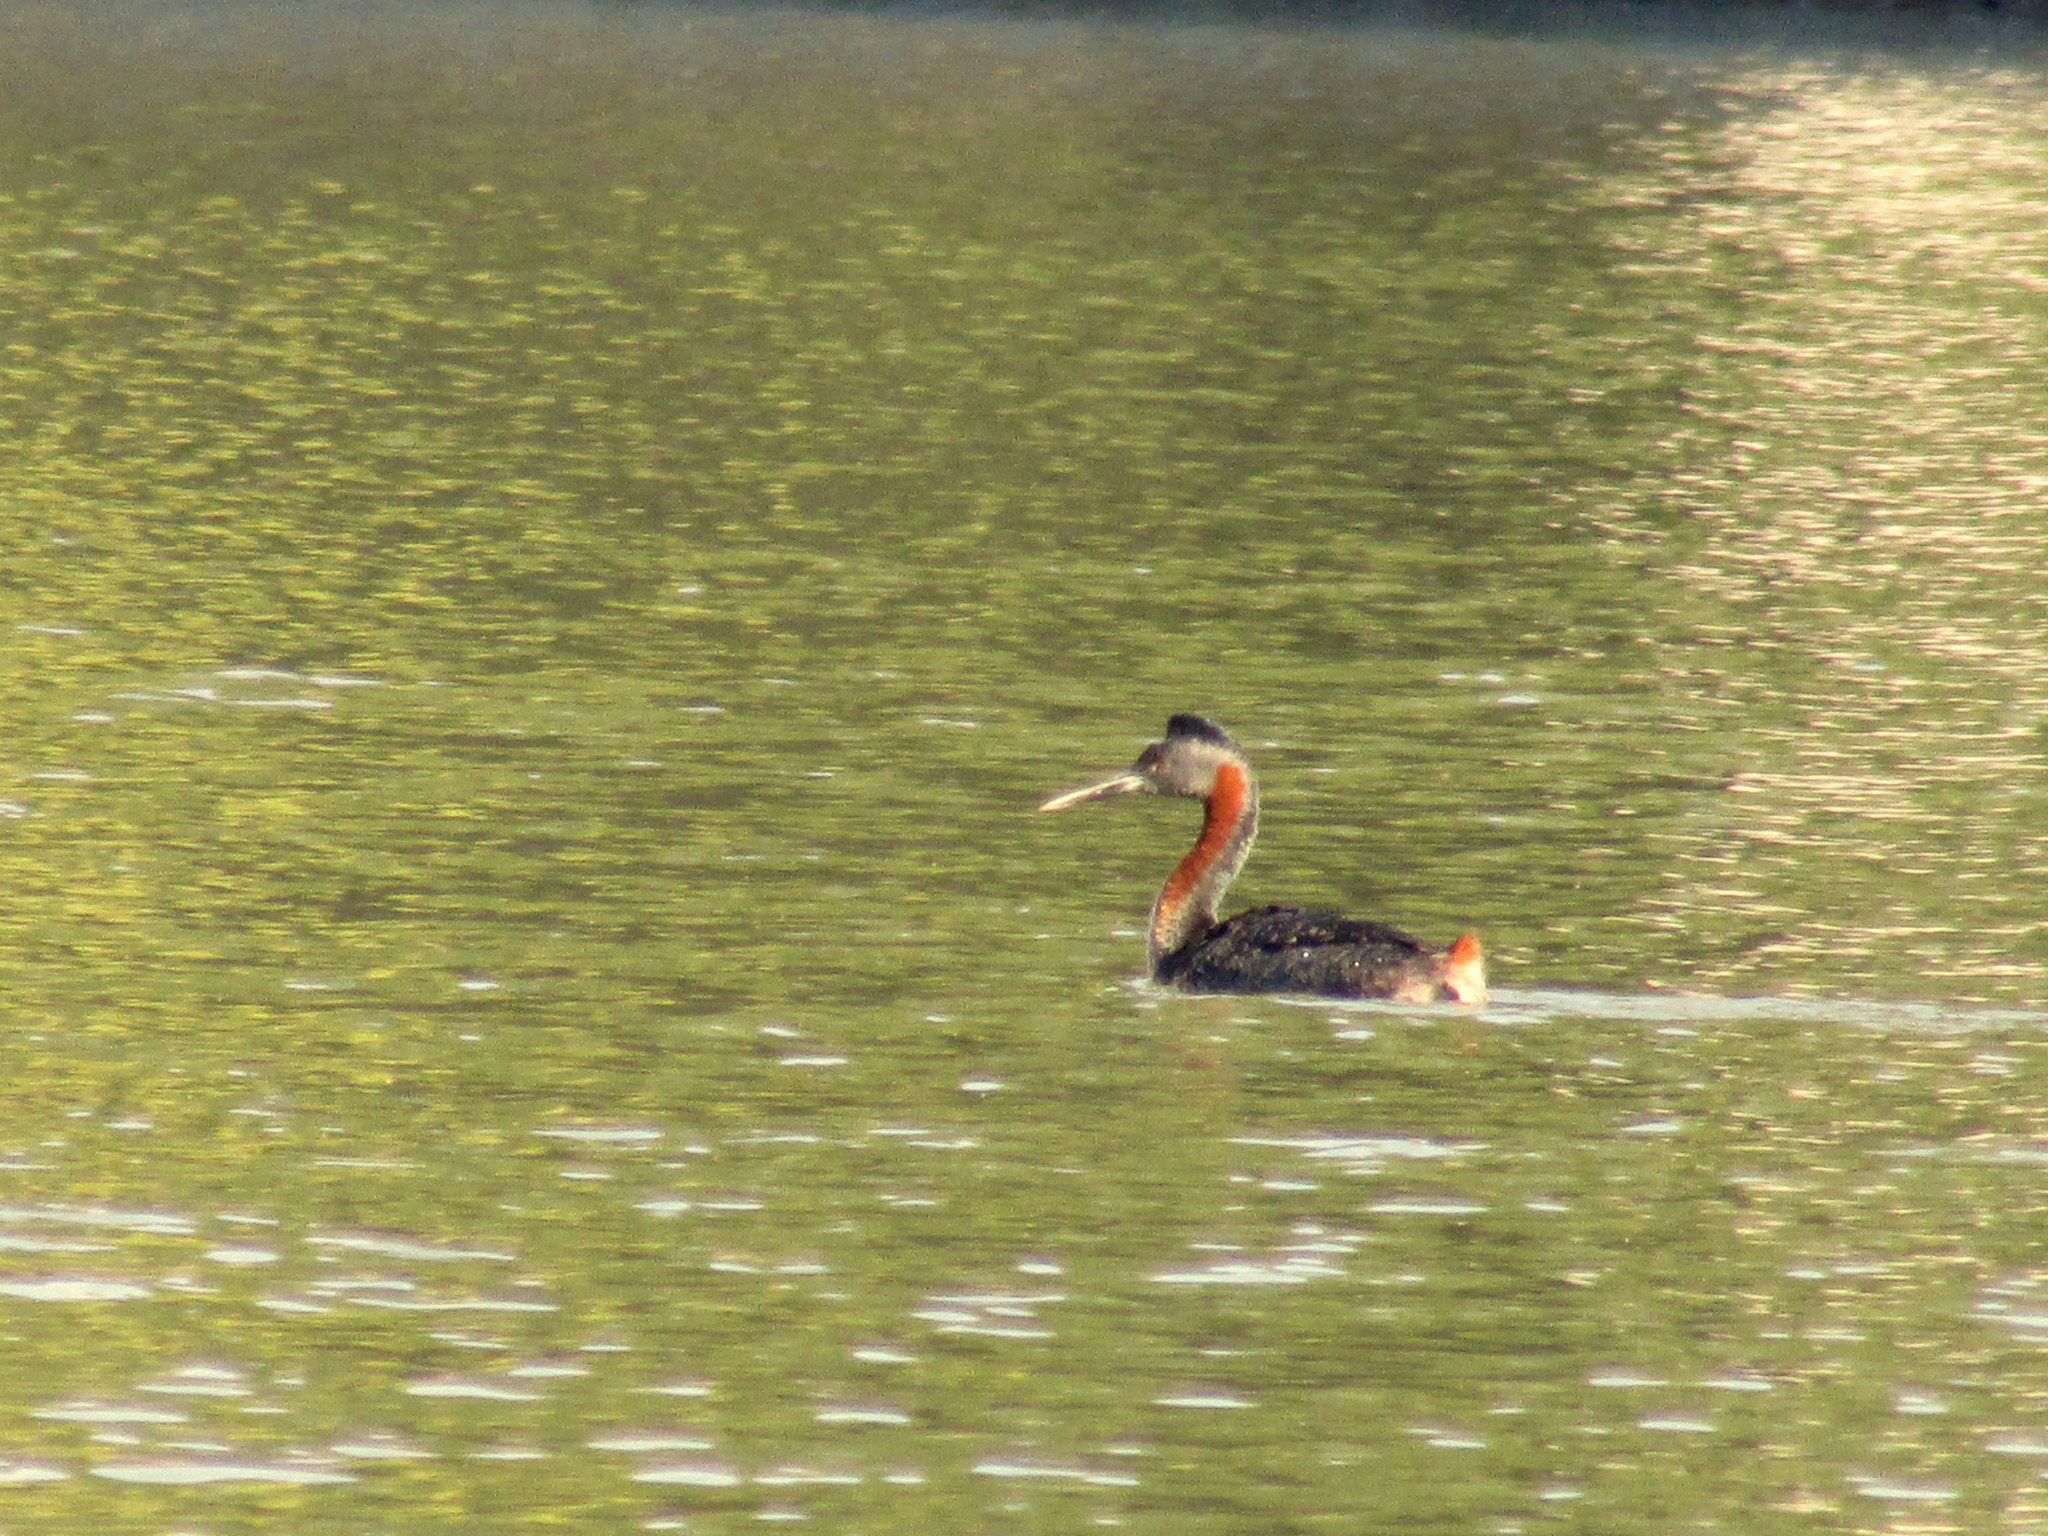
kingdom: Animalia
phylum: Chordata
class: Aves
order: Podicipediformes
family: Podicipedidae
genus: Podiceps
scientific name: Podiceps major
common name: Great grebe
